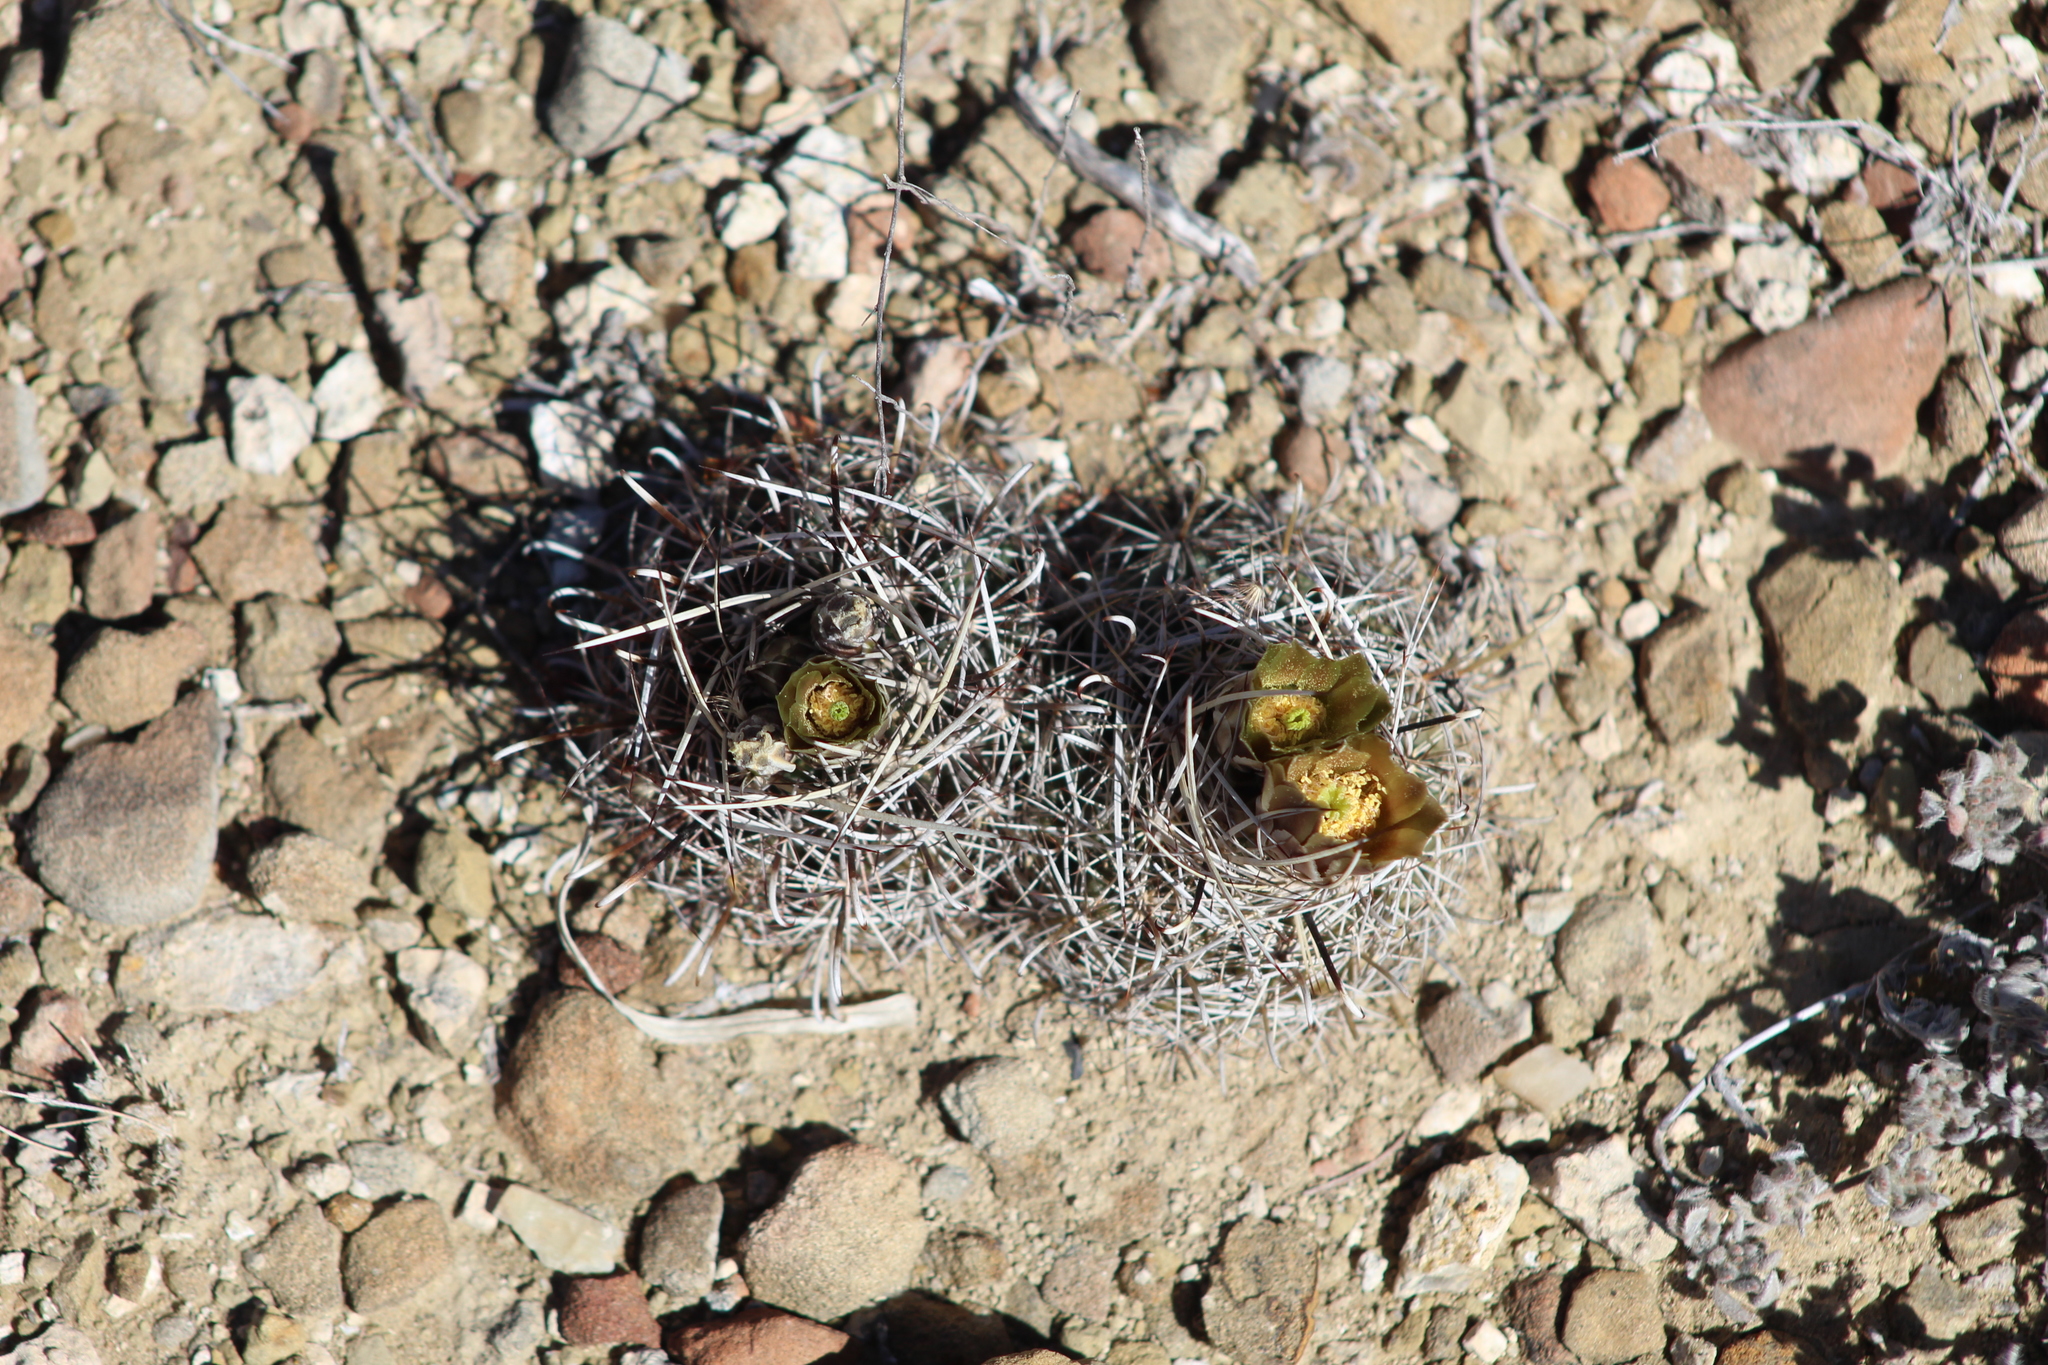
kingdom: Plantae
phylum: Tracheophyta
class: Magnoliopsida
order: Caryophyllales
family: Cactaceae
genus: Sclerocactus
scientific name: Sclerocactus scheerii
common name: Scheer's fish-hook cactus
